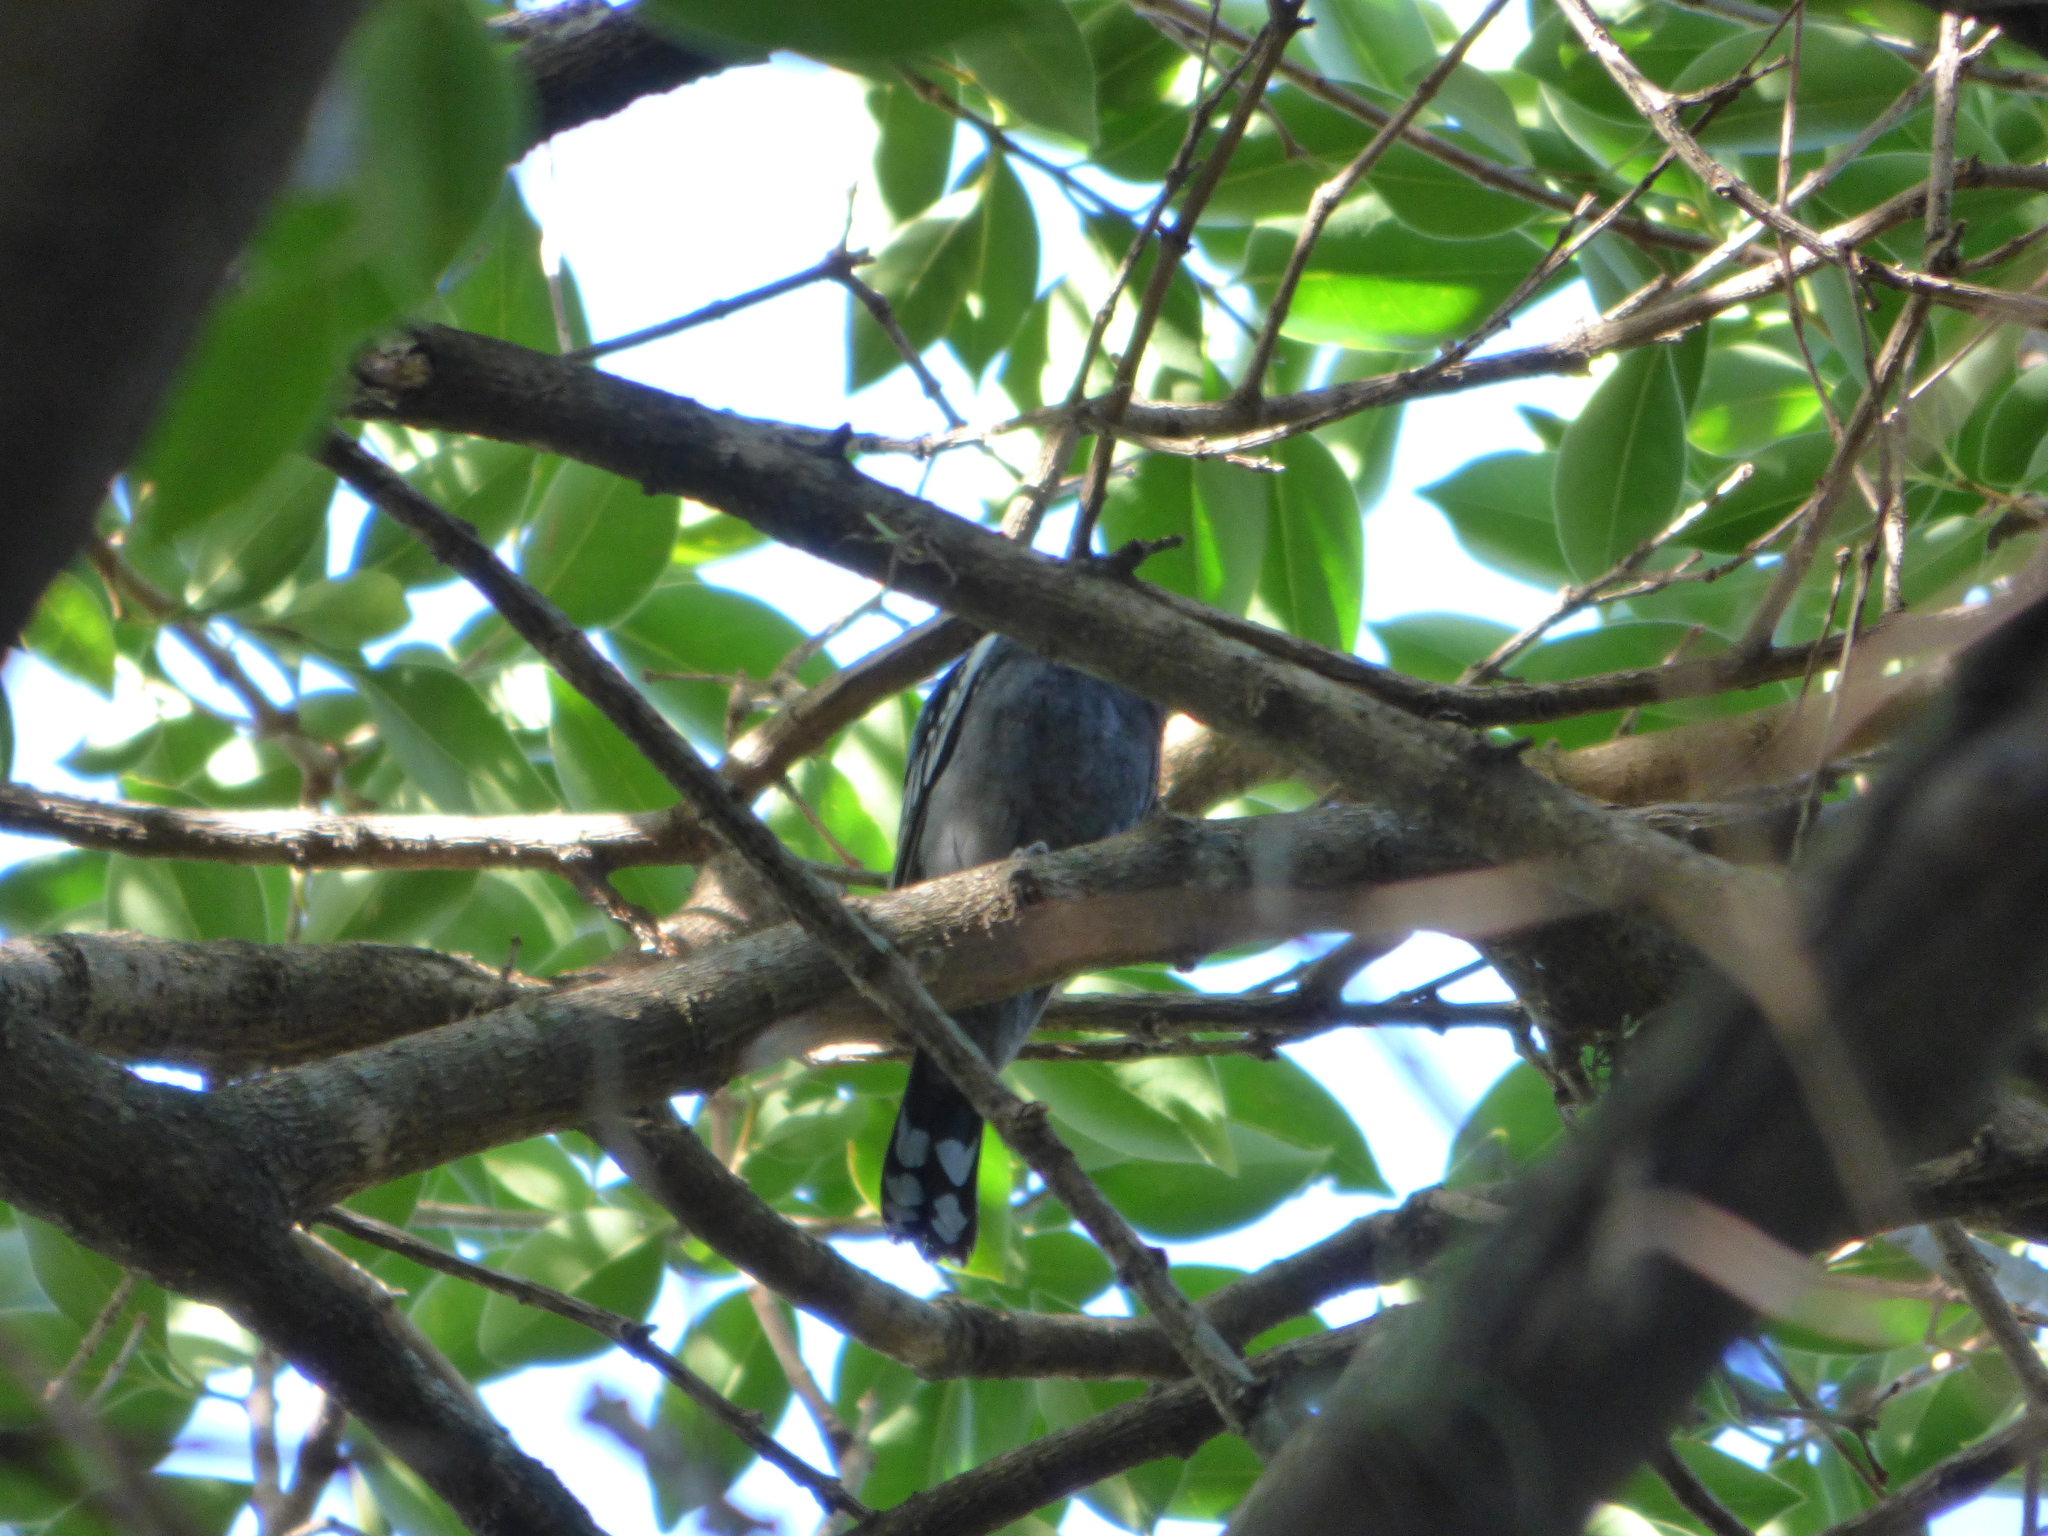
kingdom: Animalia
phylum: Chordata
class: Aves
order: Passeriformes
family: Cotingidae
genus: Pachyramphus
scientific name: Pachyramphus polychopterus
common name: White-winged becard
